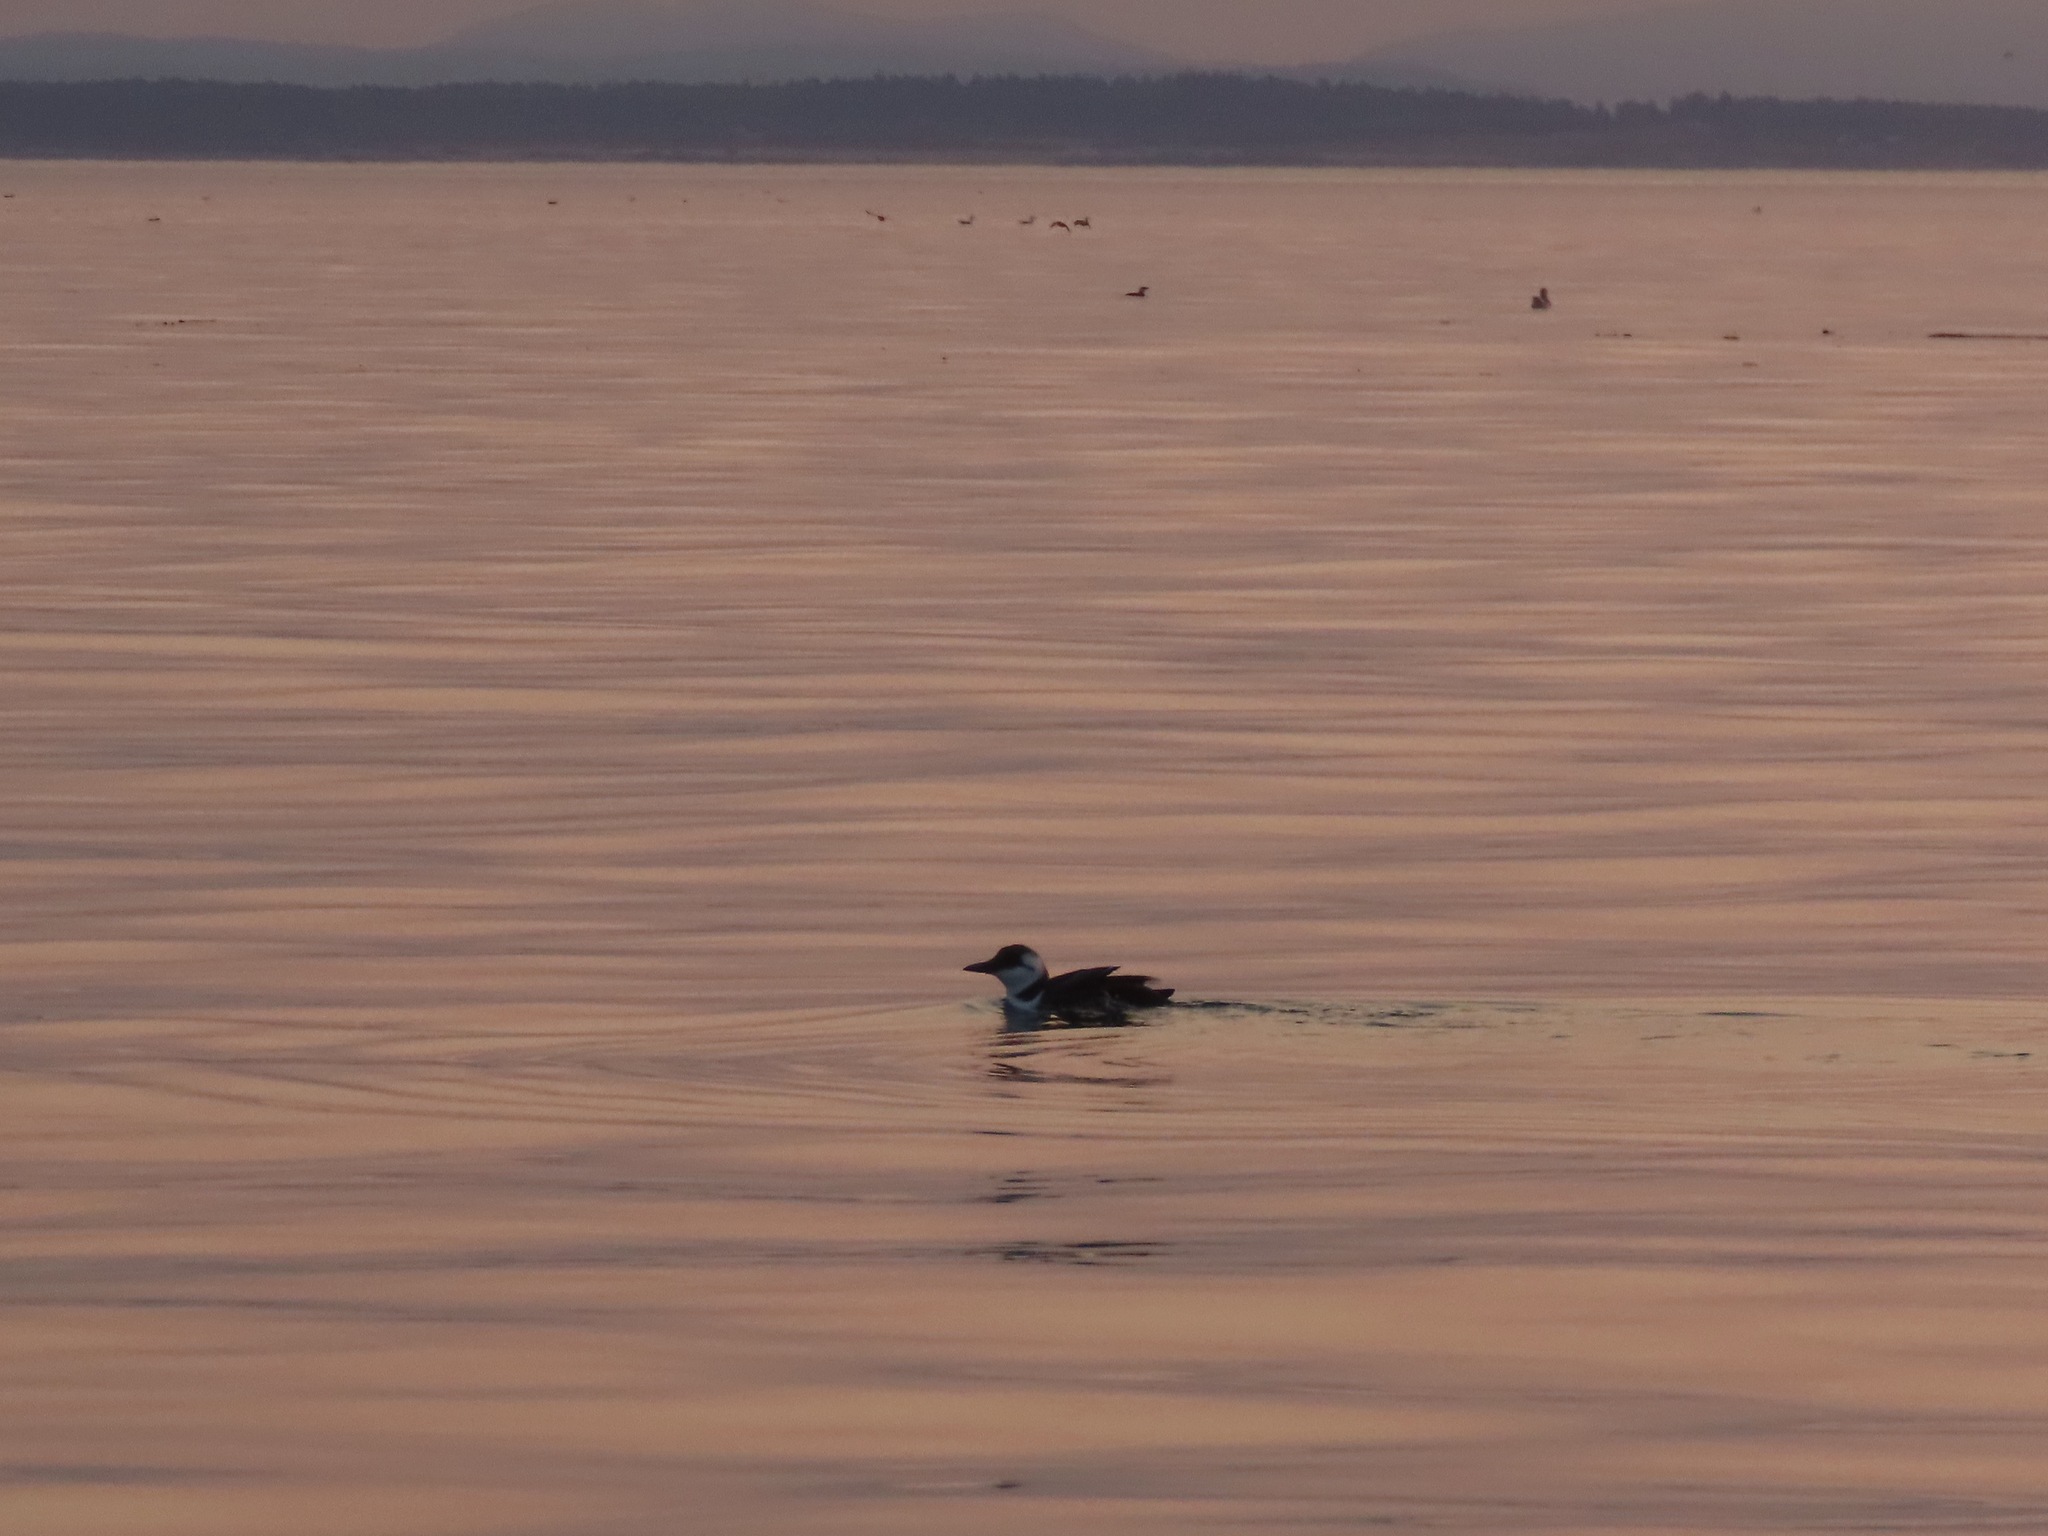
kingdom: Animalia
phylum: Chordata
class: Aves
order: Charadriiformes
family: Alcidae
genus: Uria
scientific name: Uria aalge
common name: Common murre
